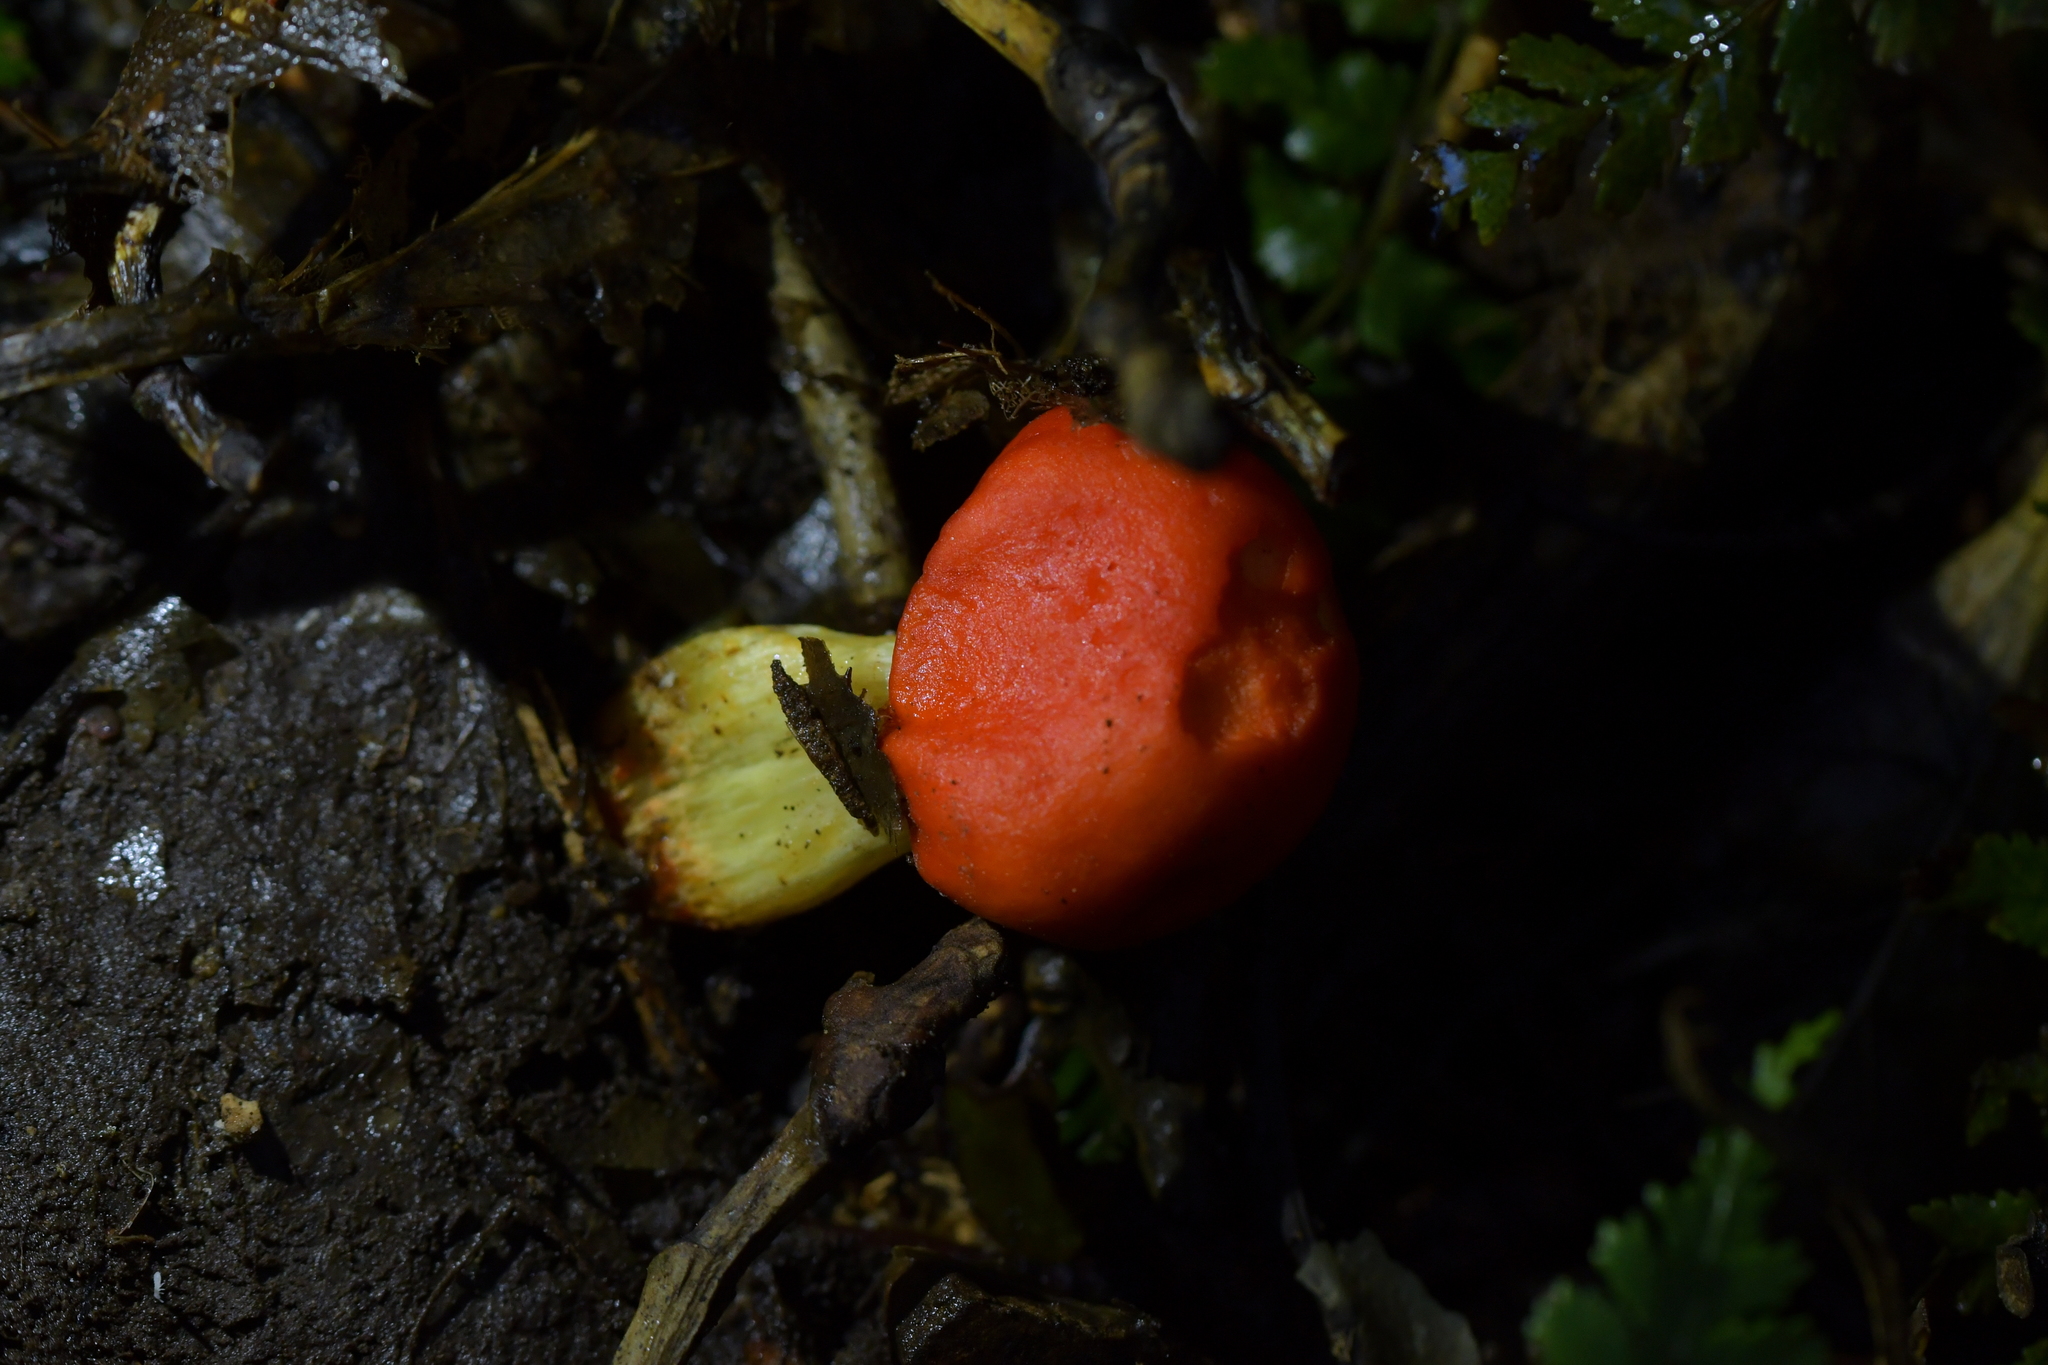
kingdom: Fungi
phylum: Basidiomycota
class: Agaricomycetes
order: Agaricales
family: Strophariaceae
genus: Leratiomyces
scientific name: Leratiomyces erythrocephalus
